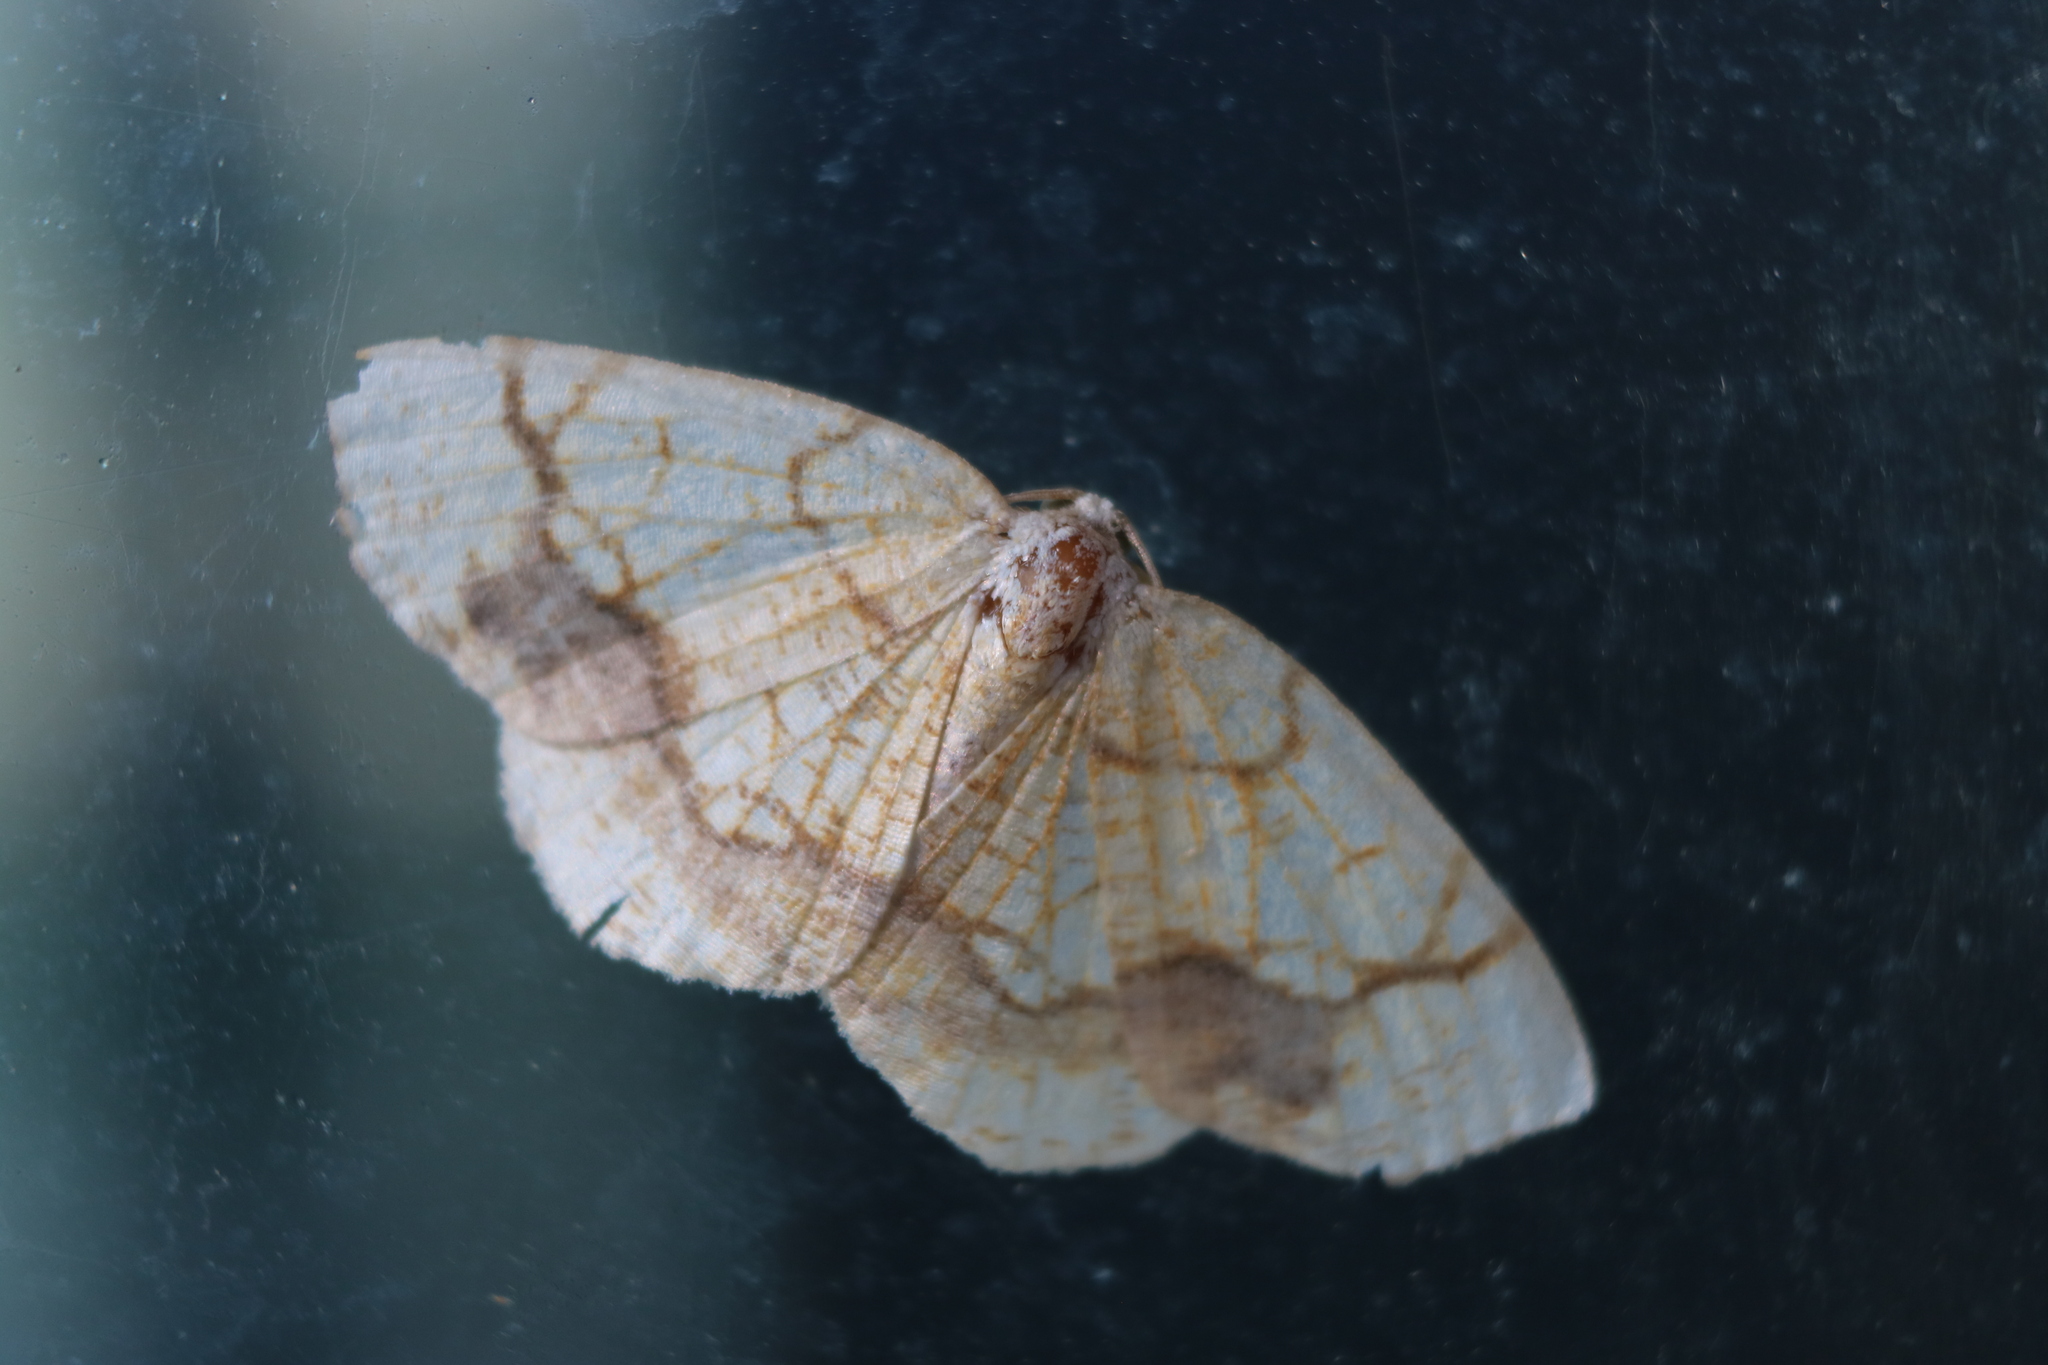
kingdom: Animalia
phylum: Arthropoda
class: Insecta
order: Lepidoptera
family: Geometridae
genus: Nematocampa
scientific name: Nematocampa resistaria
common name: Horned spanworm moth
